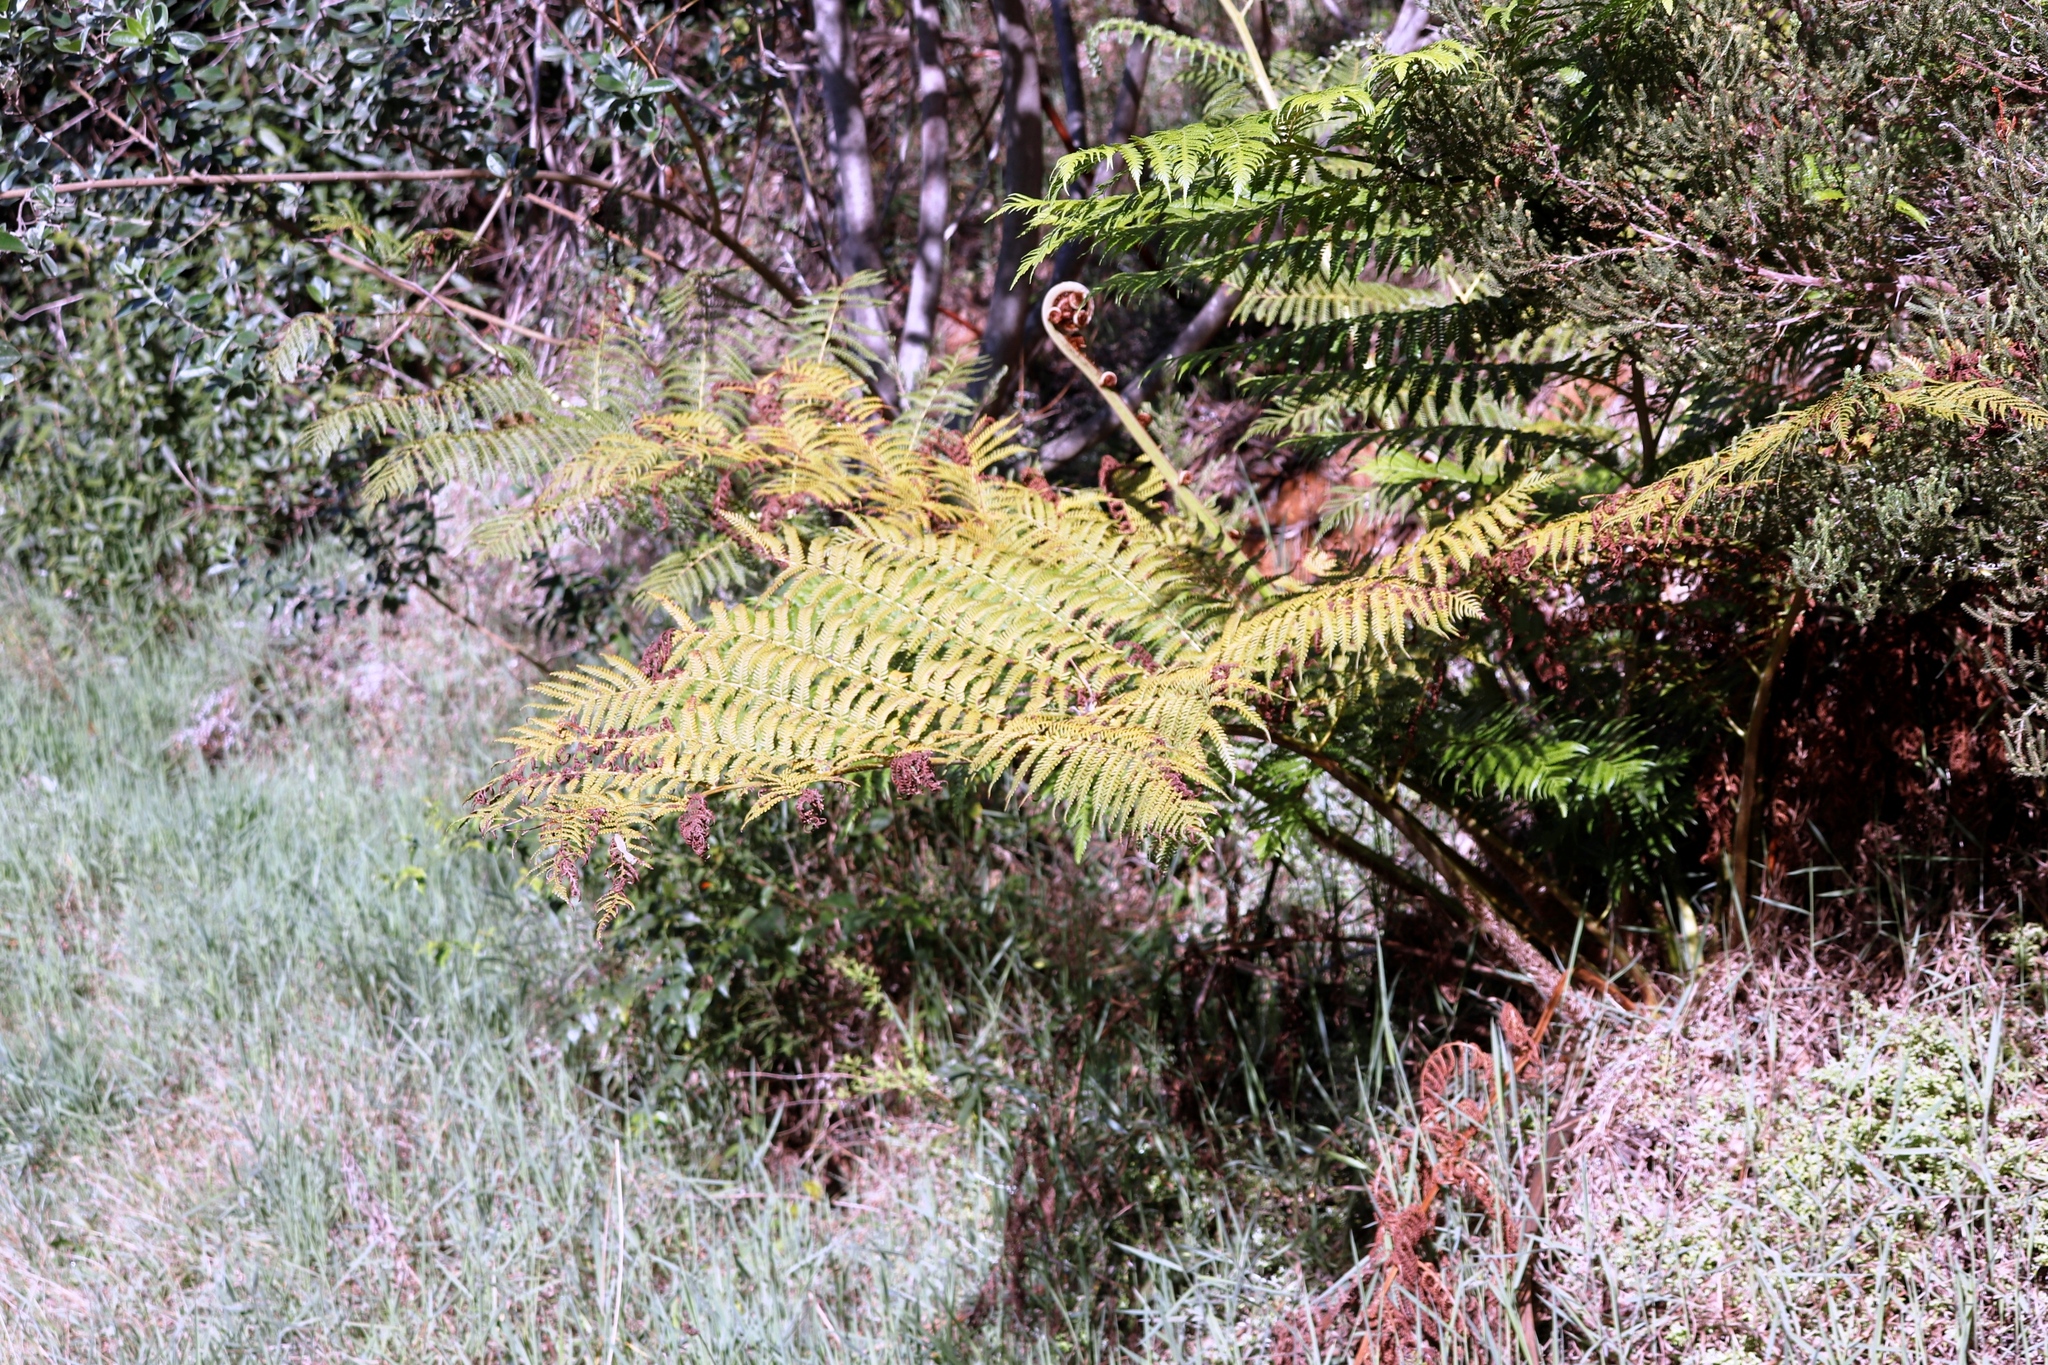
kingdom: Plantae
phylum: Tracheophyta
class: Polypodiopsida
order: Cyatheales
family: Cyatheaceae
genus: Sphaeropteris
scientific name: Sphaeropteris cooperi
